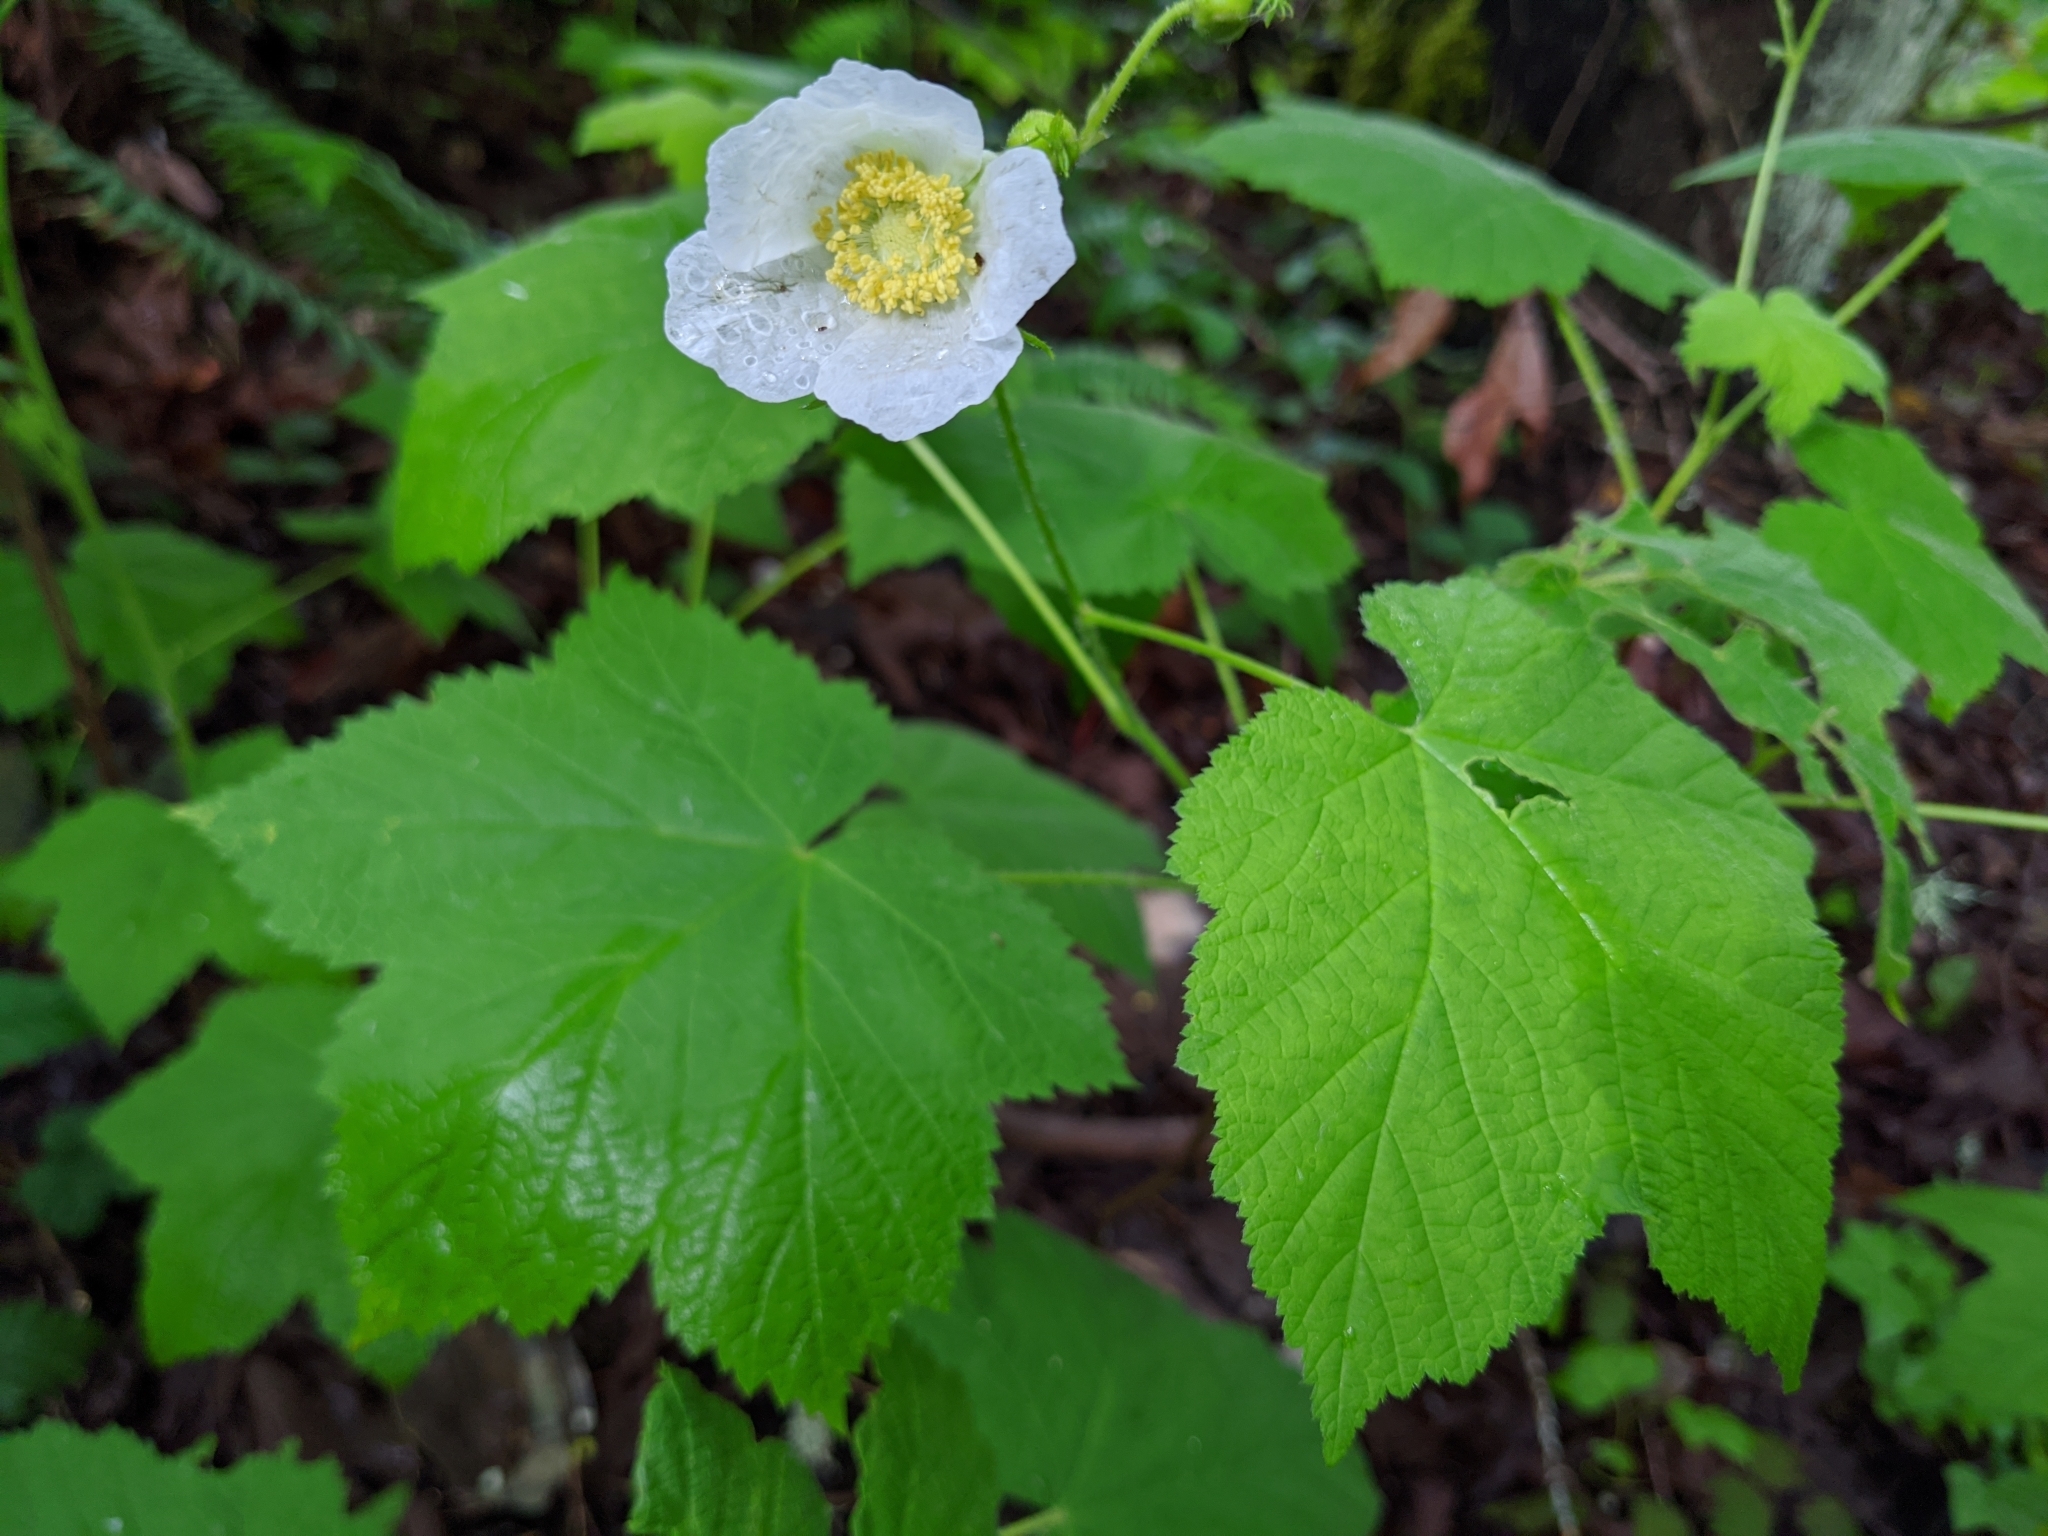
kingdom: Plantae
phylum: Tracheophyta
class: Magnoliopsida
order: Rosales
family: Rosaceae
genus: Rubus
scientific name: Rubus parviflorus
